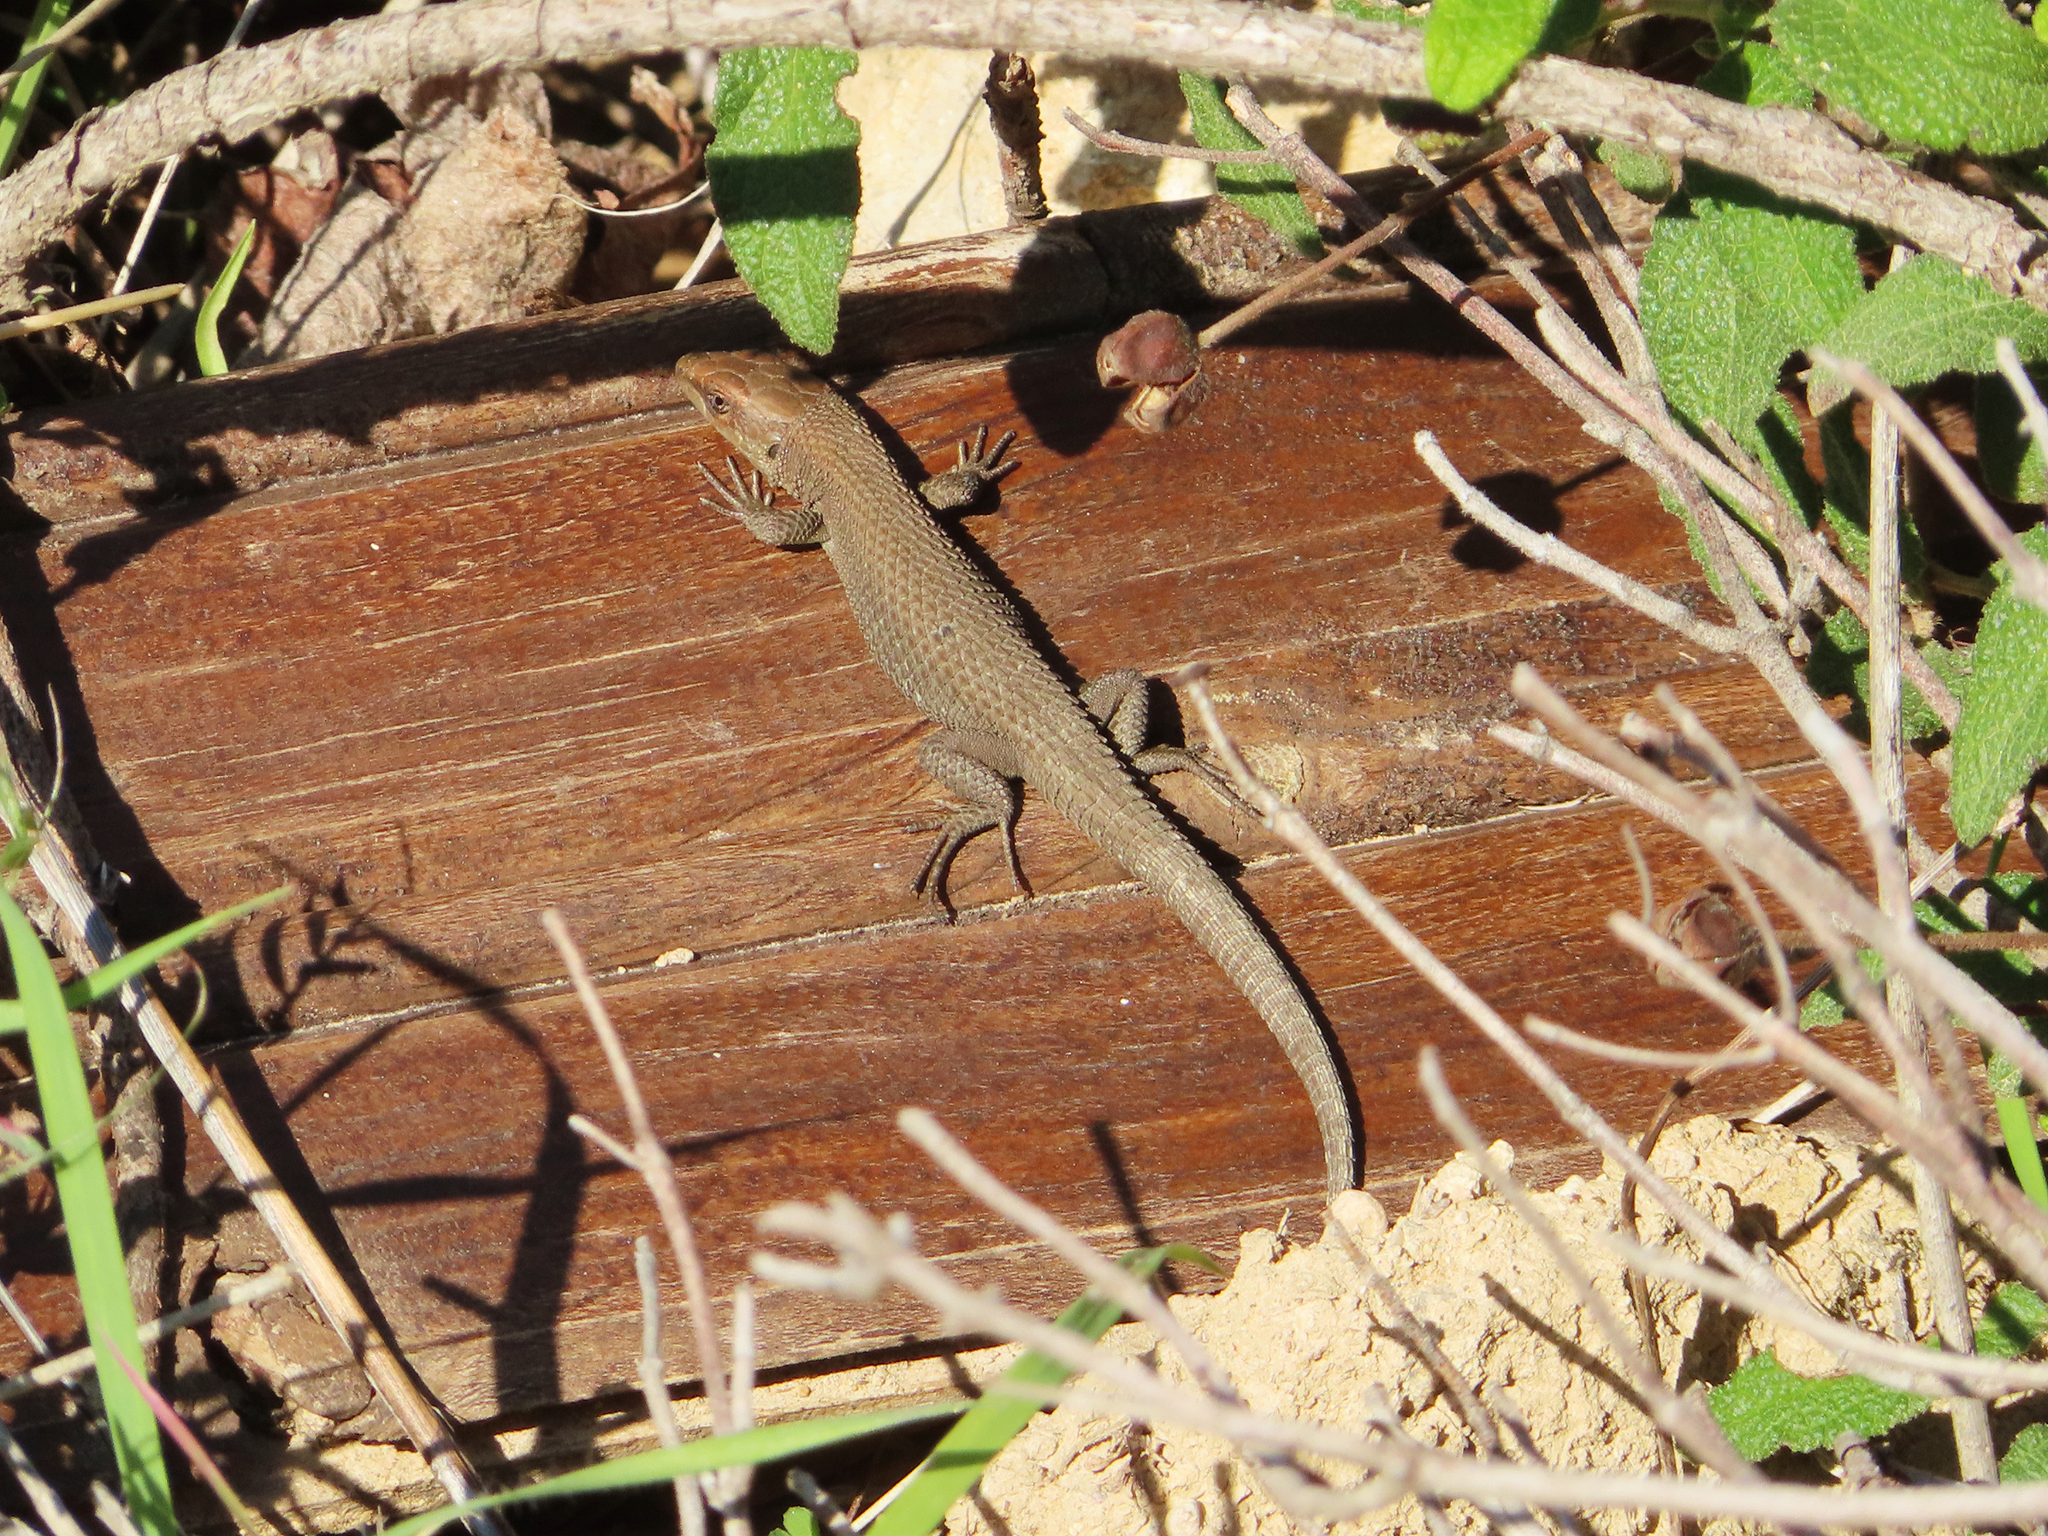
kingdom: Animalia
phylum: Chordata
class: Squamata
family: Lacertidae
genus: Algyroides
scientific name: Algyroides moreoticus
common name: Greek algyroides
